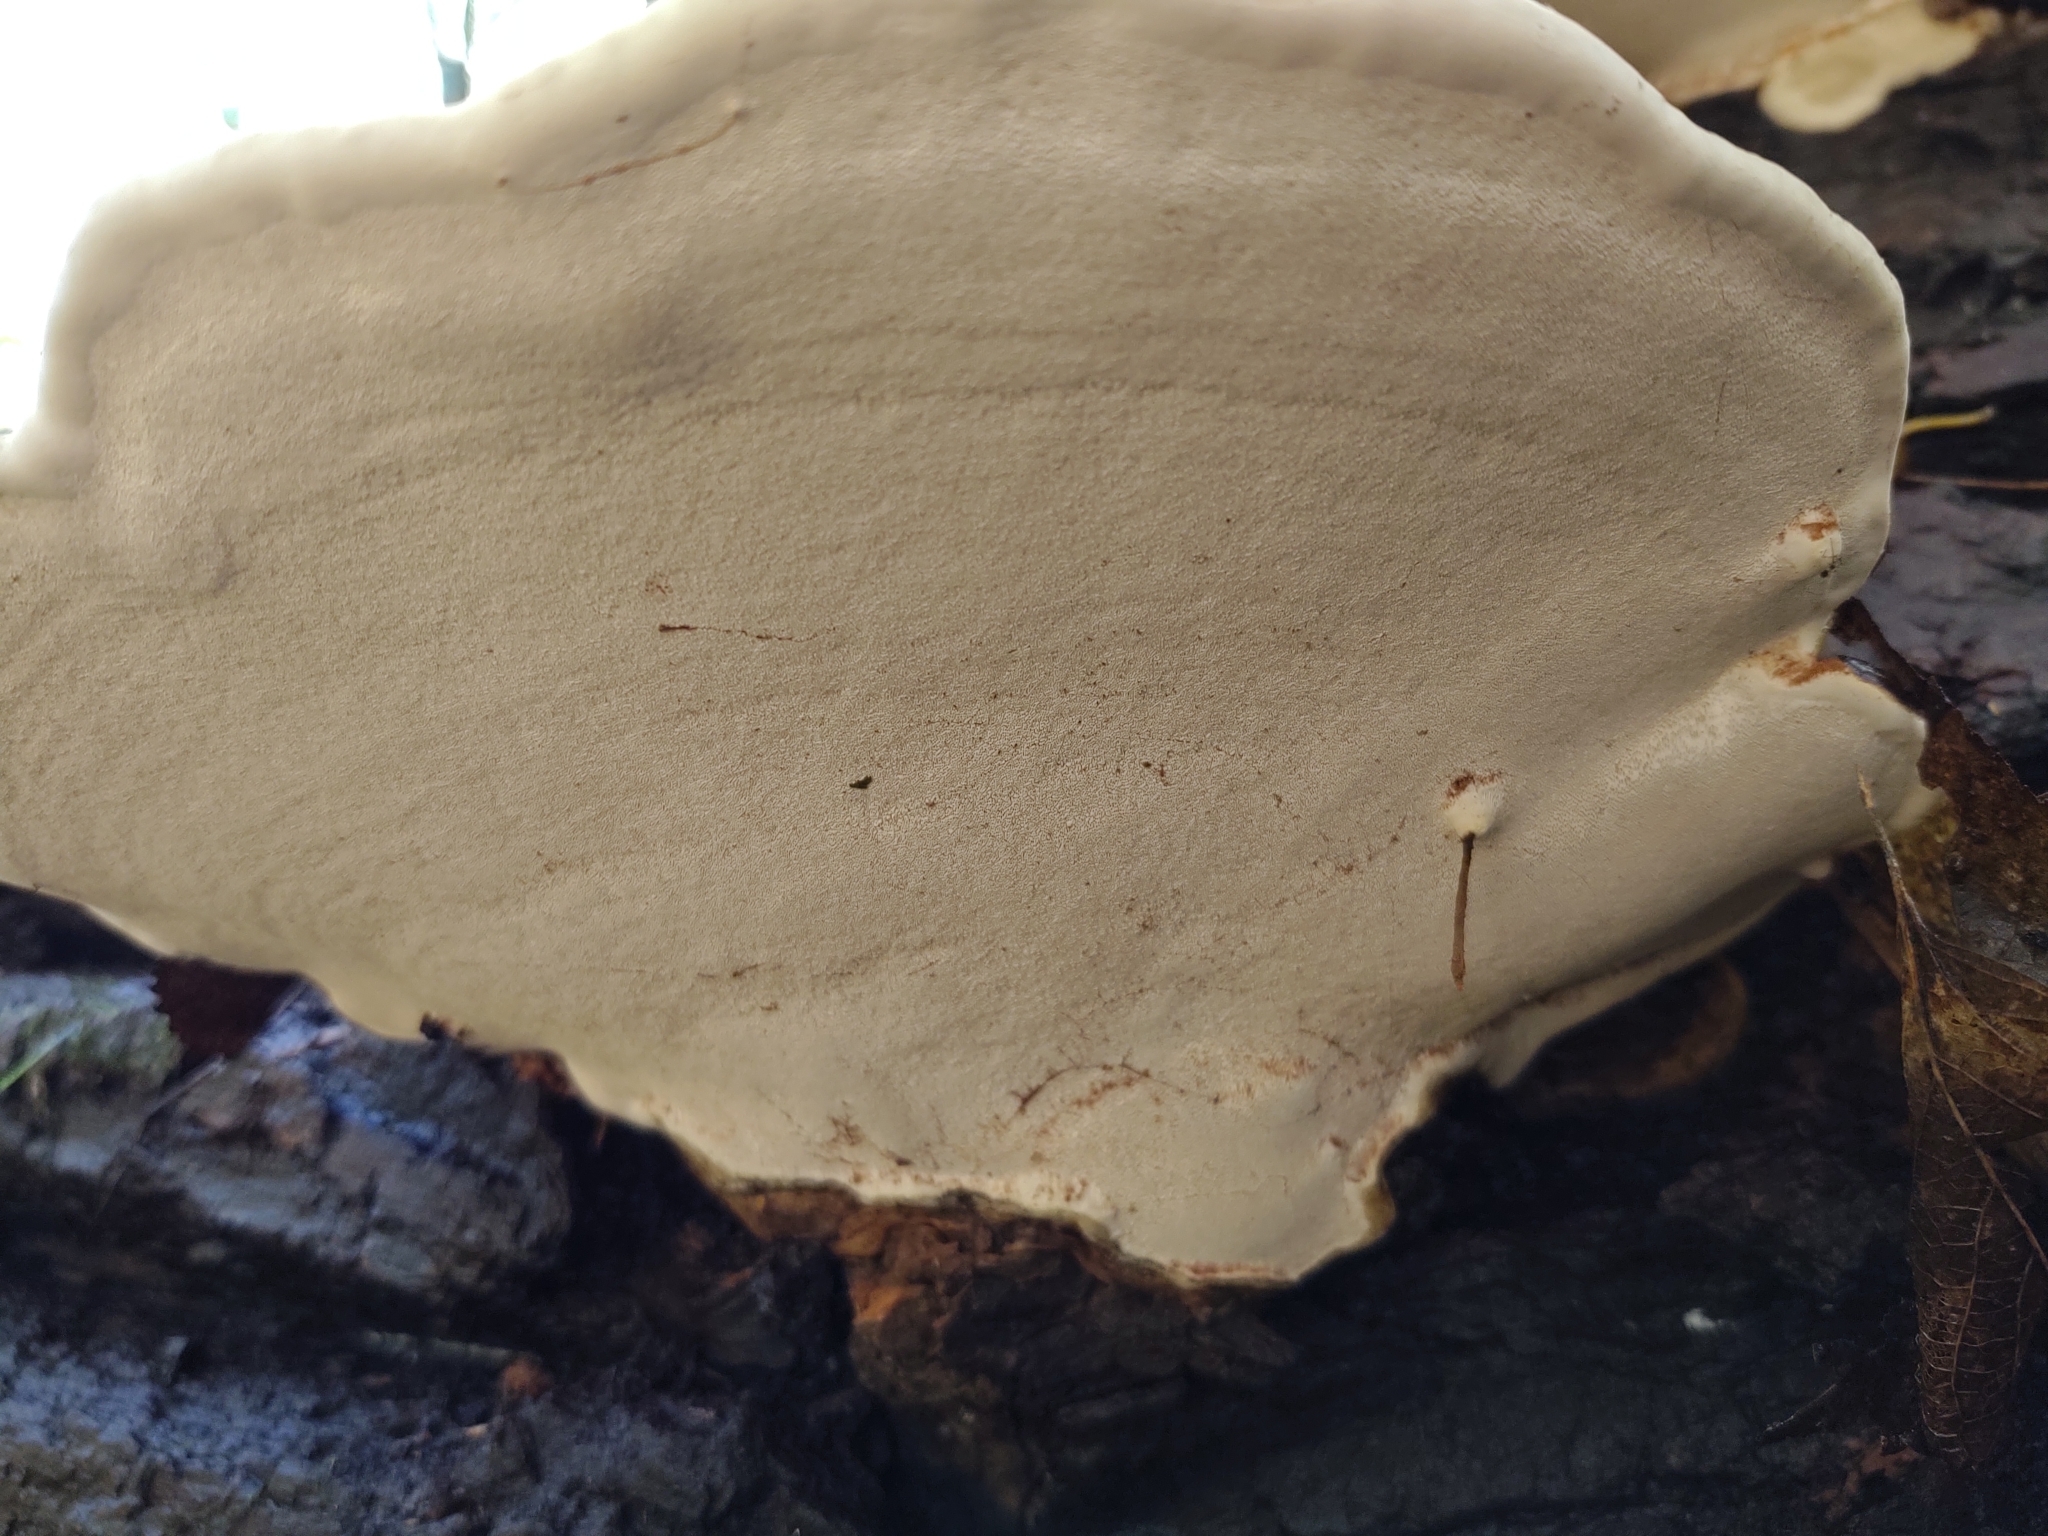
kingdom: Fungi
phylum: Basidiomycota
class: Agaricomycetes
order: Polyporales
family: Polyporaceae
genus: Ganoderma
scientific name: Ganoderma resinaceum
